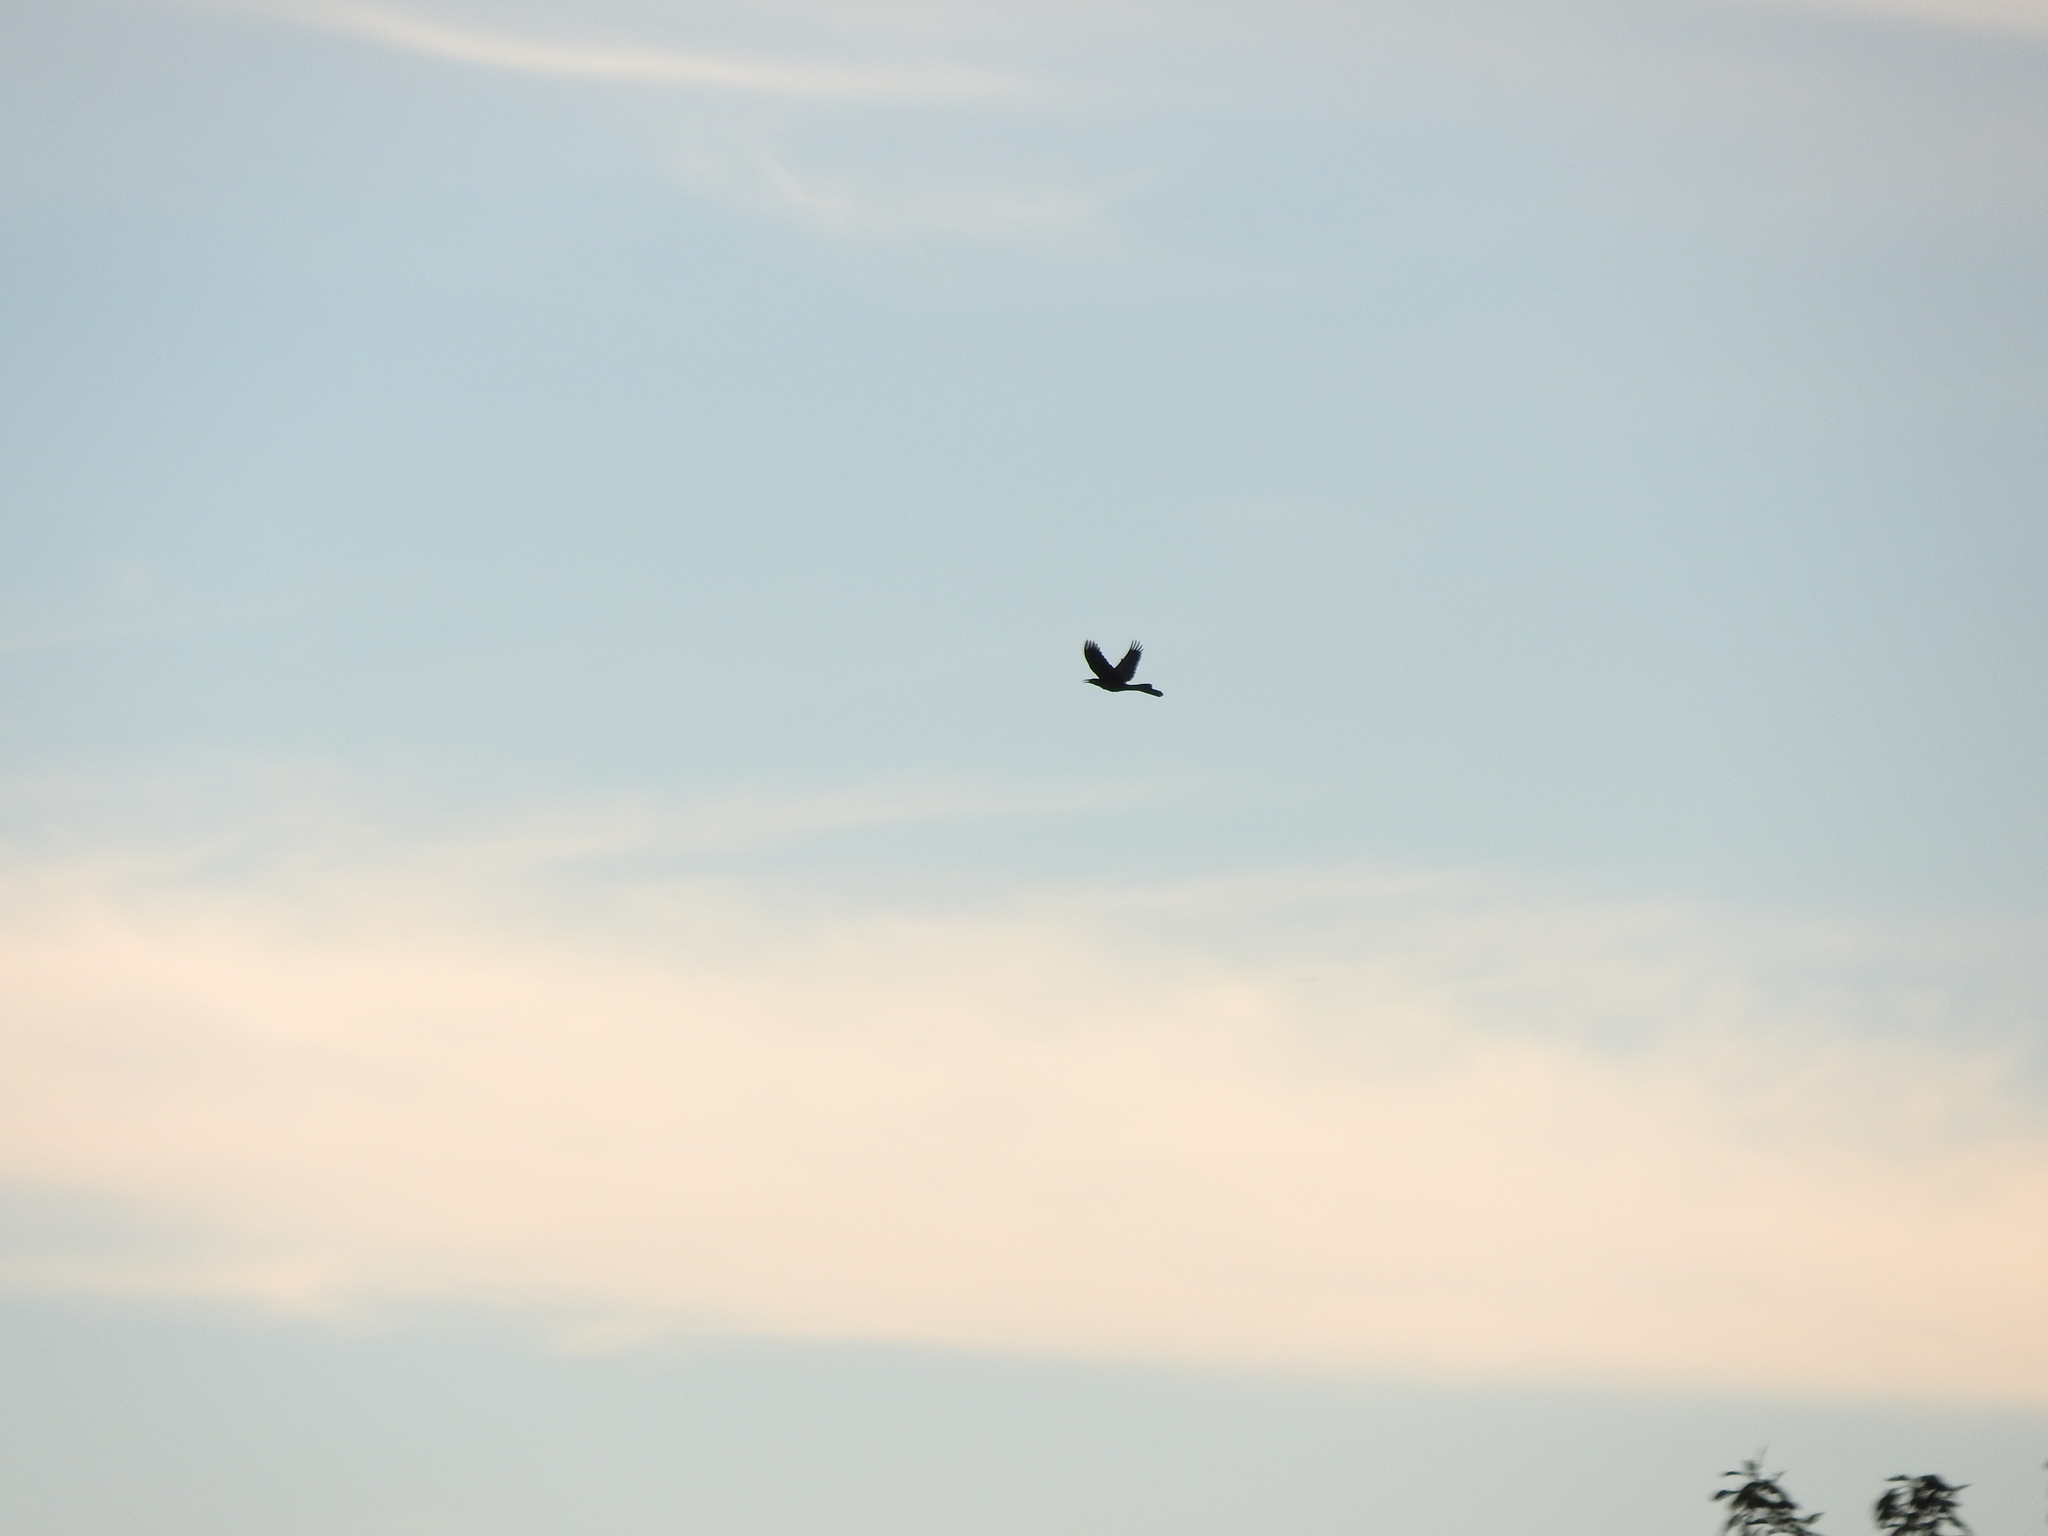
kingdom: Animalia
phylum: Chordata
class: Aves
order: Passeriformes
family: Icteridae
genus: Quiscalus
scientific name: Quiscalus mexicanus
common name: Great-tailed grackle
